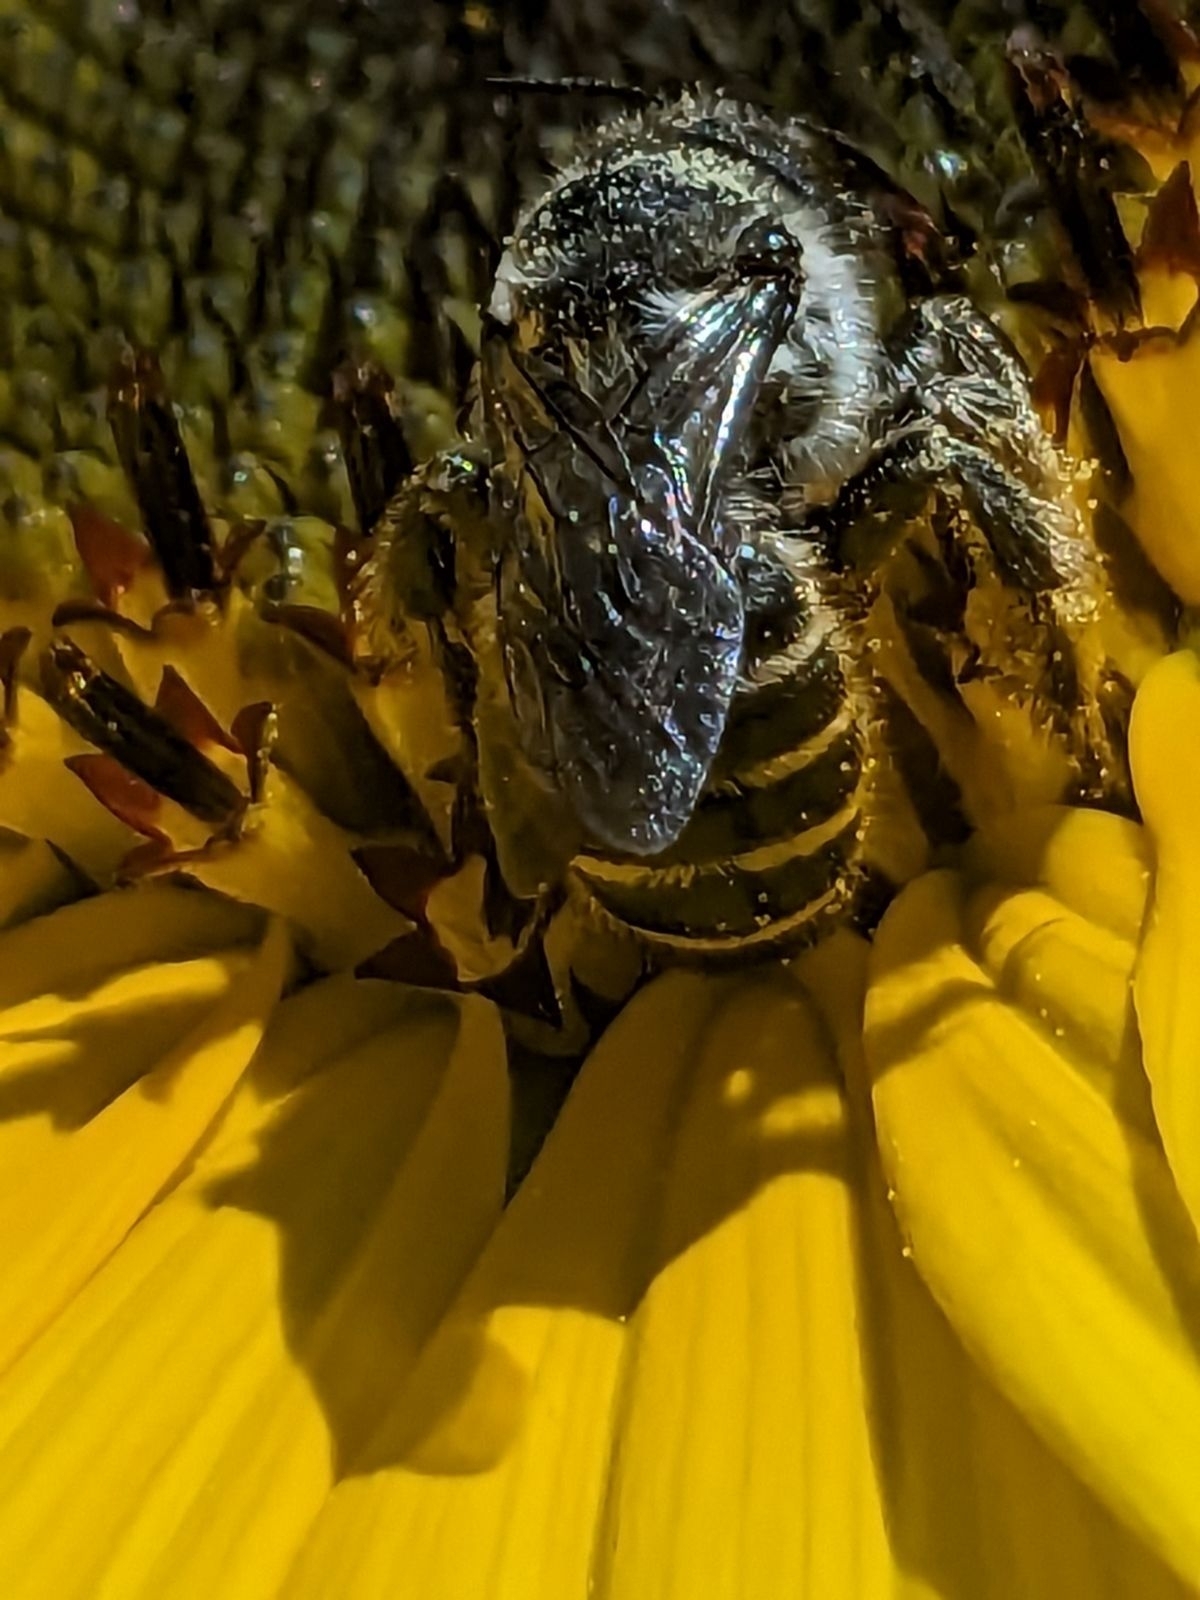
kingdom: Animalia
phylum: Arthropoda
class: Insecta
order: Hymenoptera
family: Megachilidae
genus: Lithurgopsis
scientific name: Lithurgopsis apicalis
